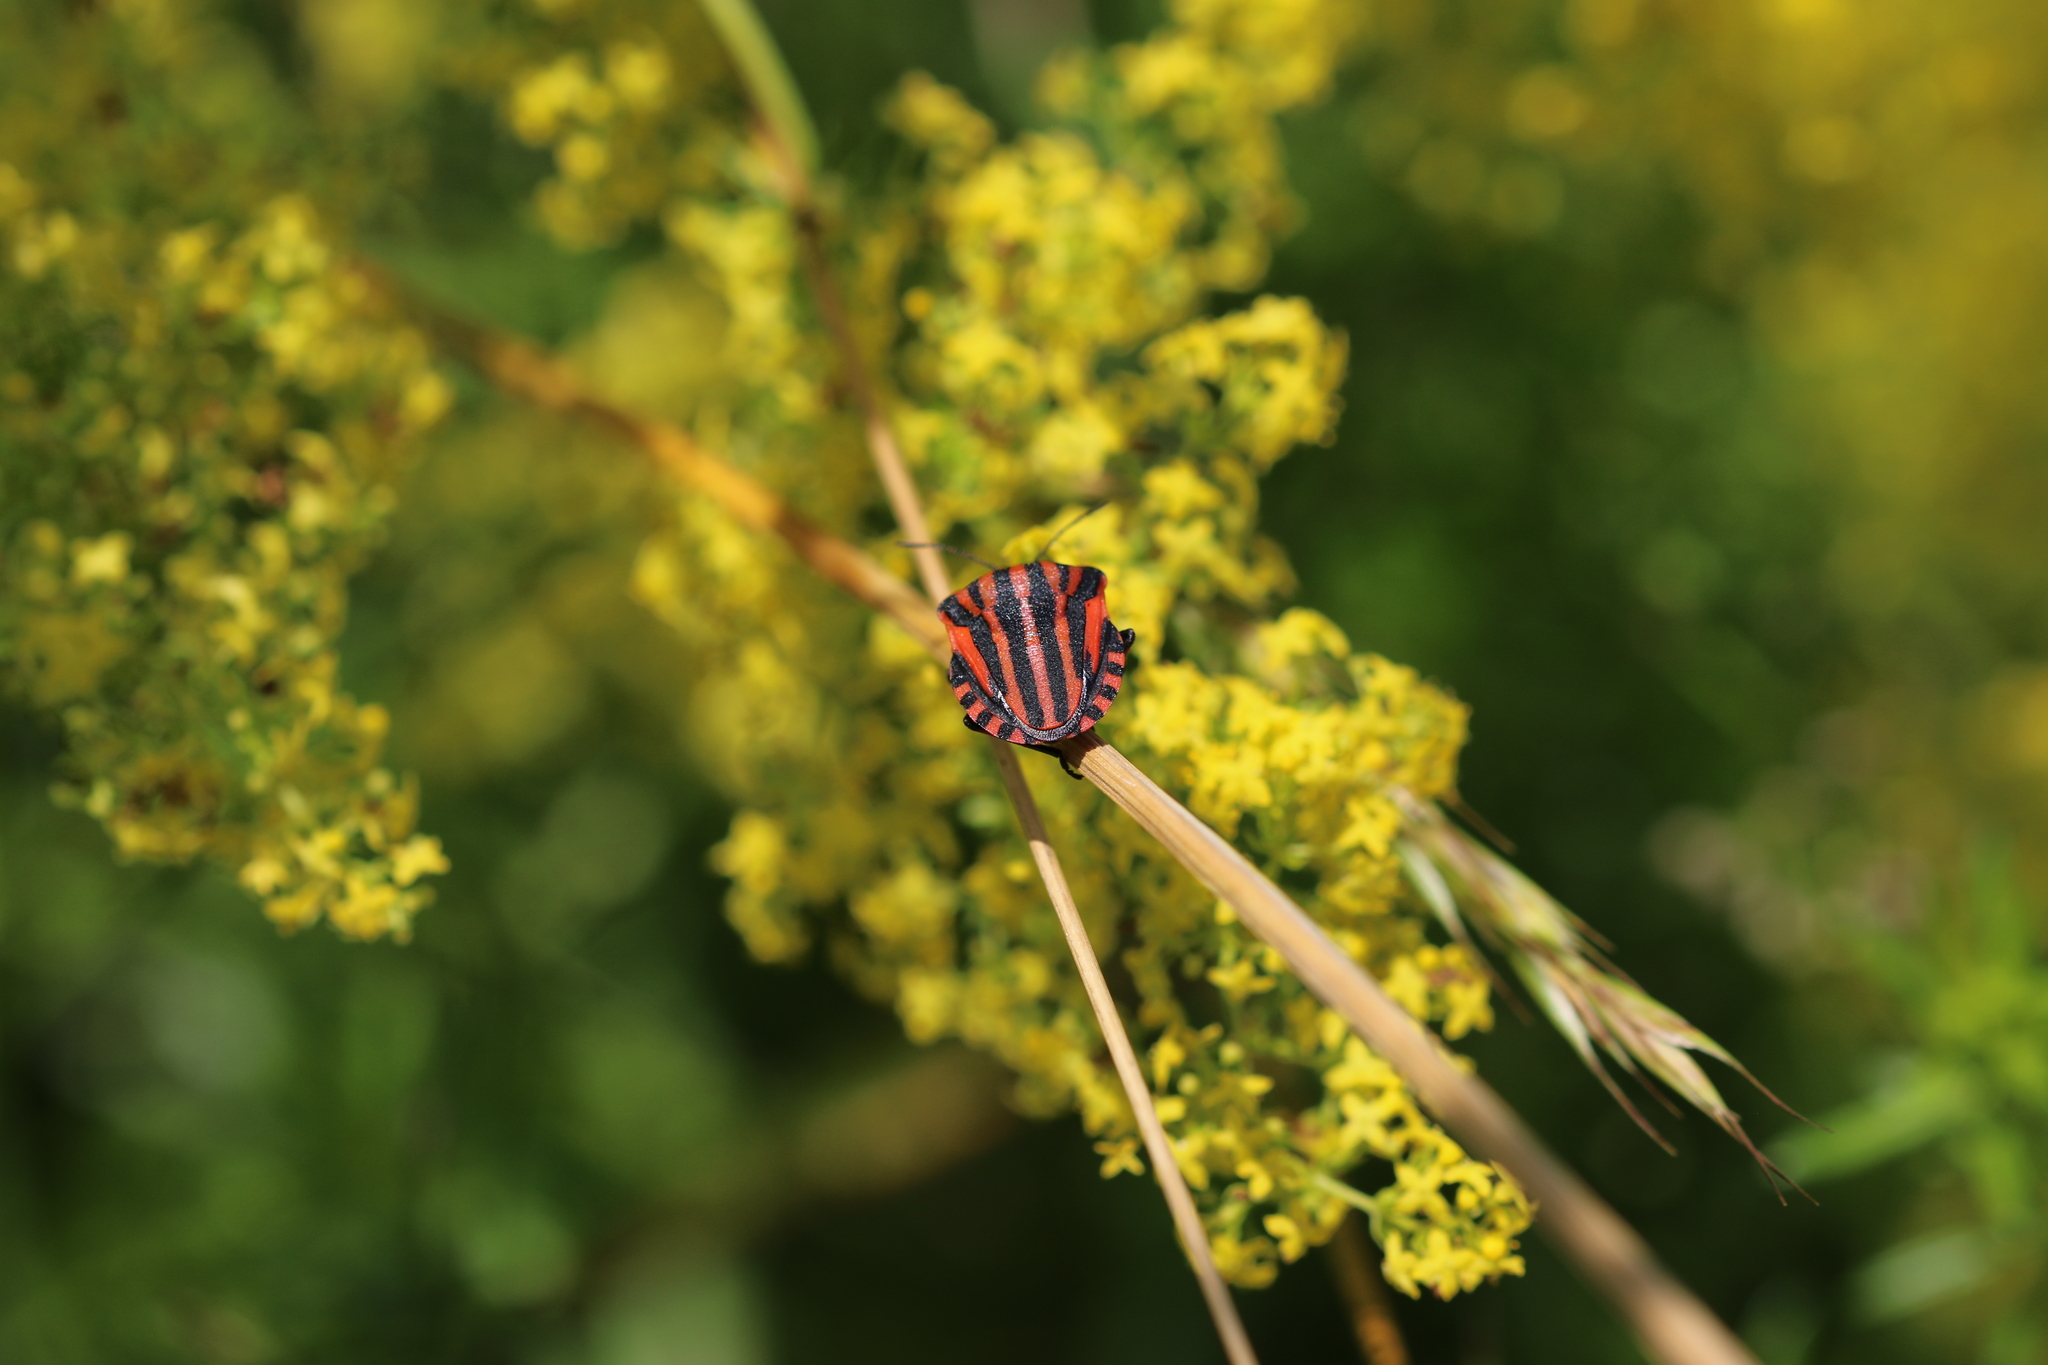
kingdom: Animalia
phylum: Arthropoda
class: Insecta
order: Hemiptera
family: Pentatomidae
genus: Graphosoma
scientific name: Graphosoma italicum
